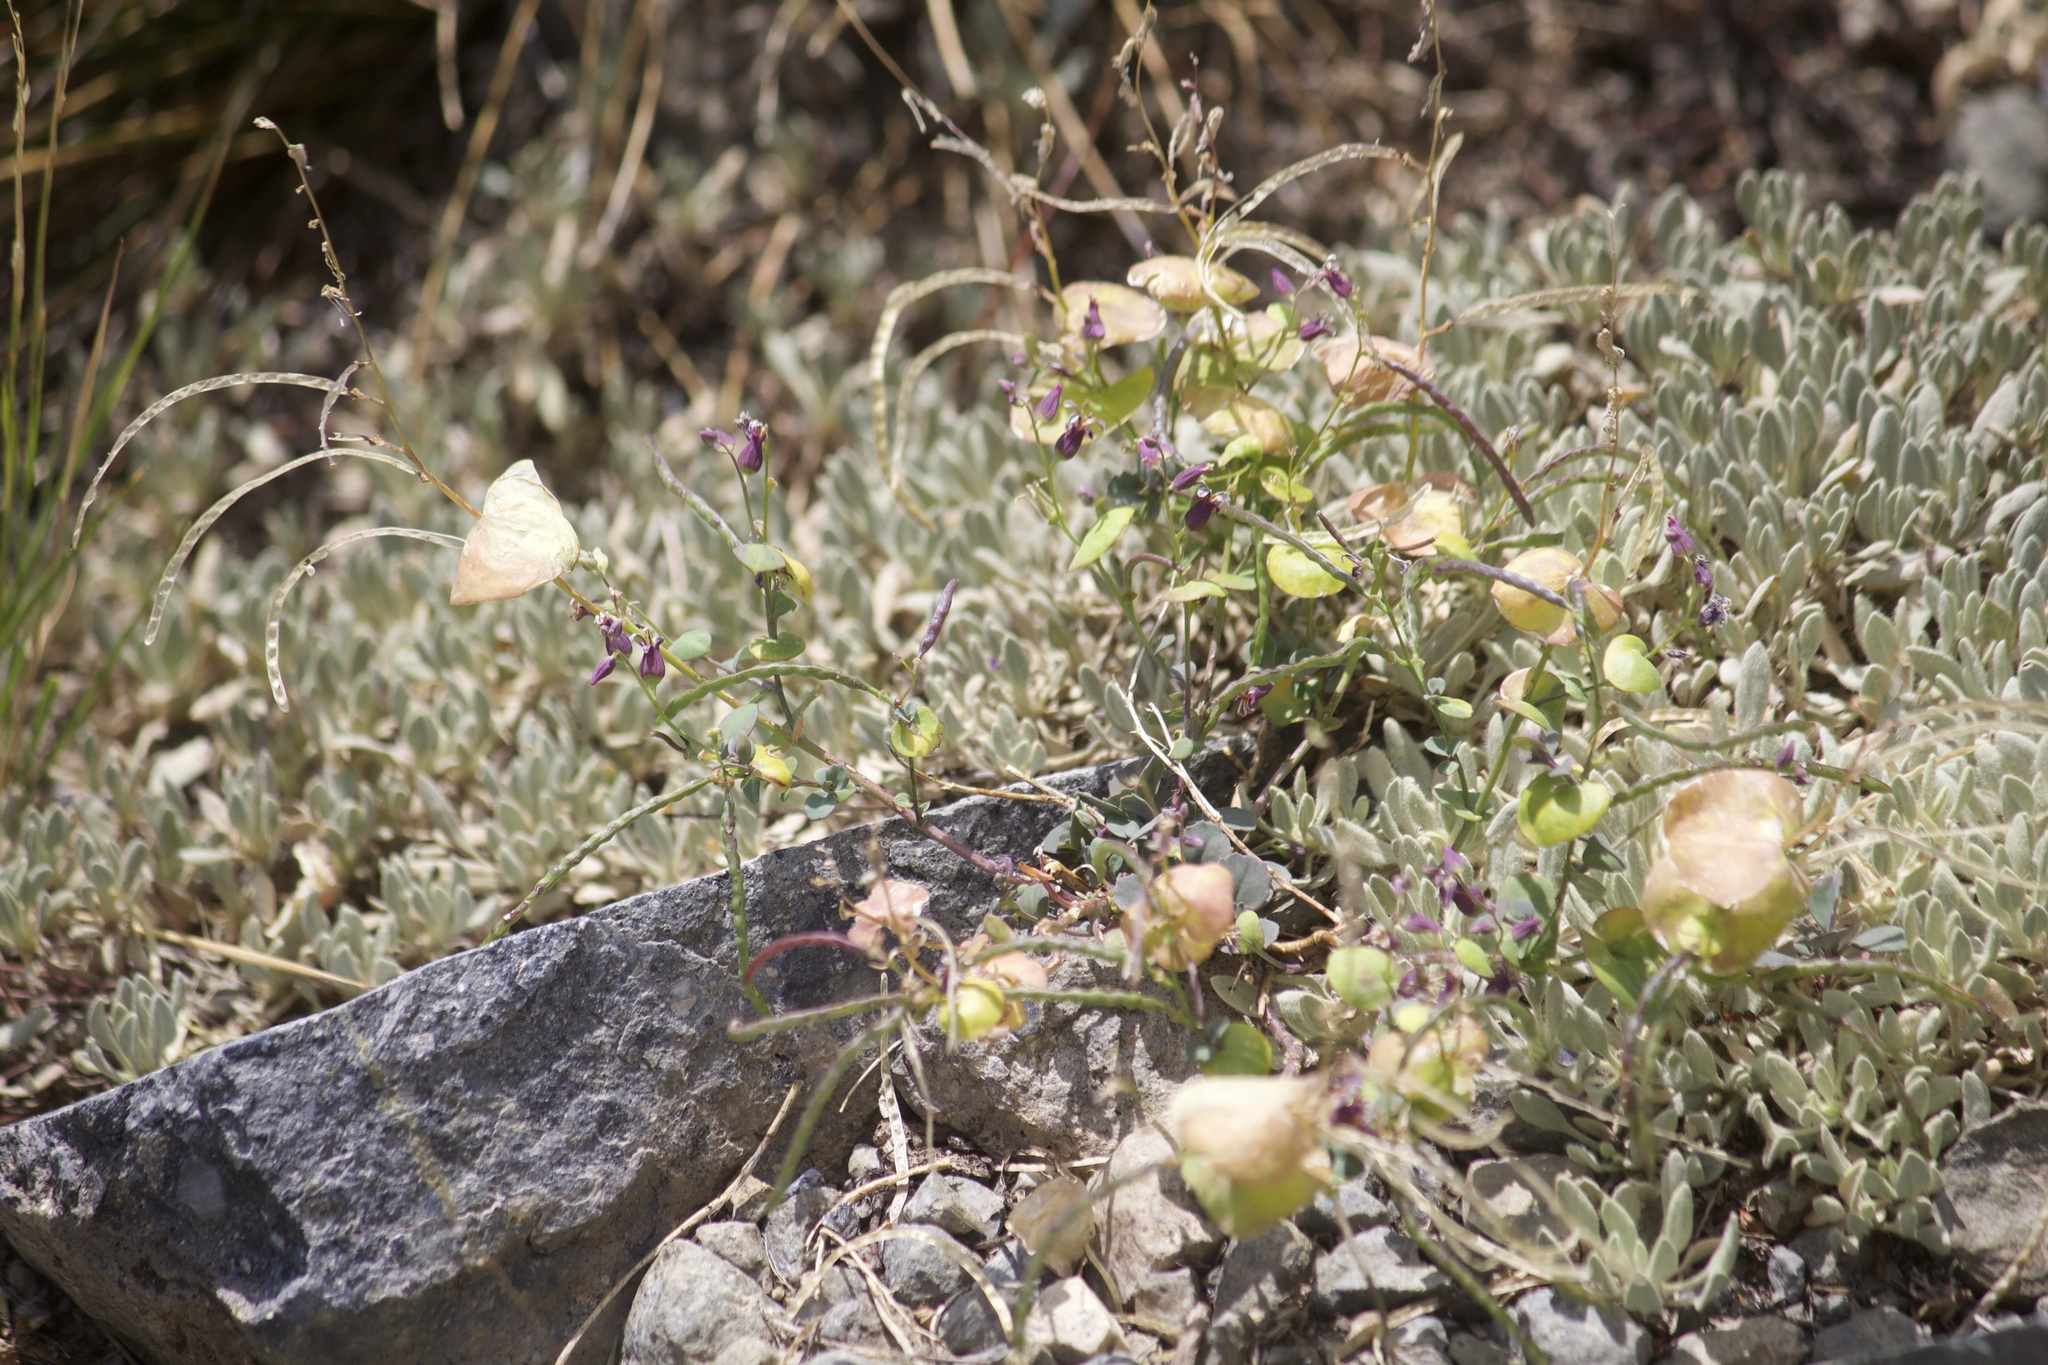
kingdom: Plantae
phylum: Tracheophyta
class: Magnoliopsida
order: Brassicales
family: Brassicaceae
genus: Streptanthus
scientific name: Streptanthus tortuosus
